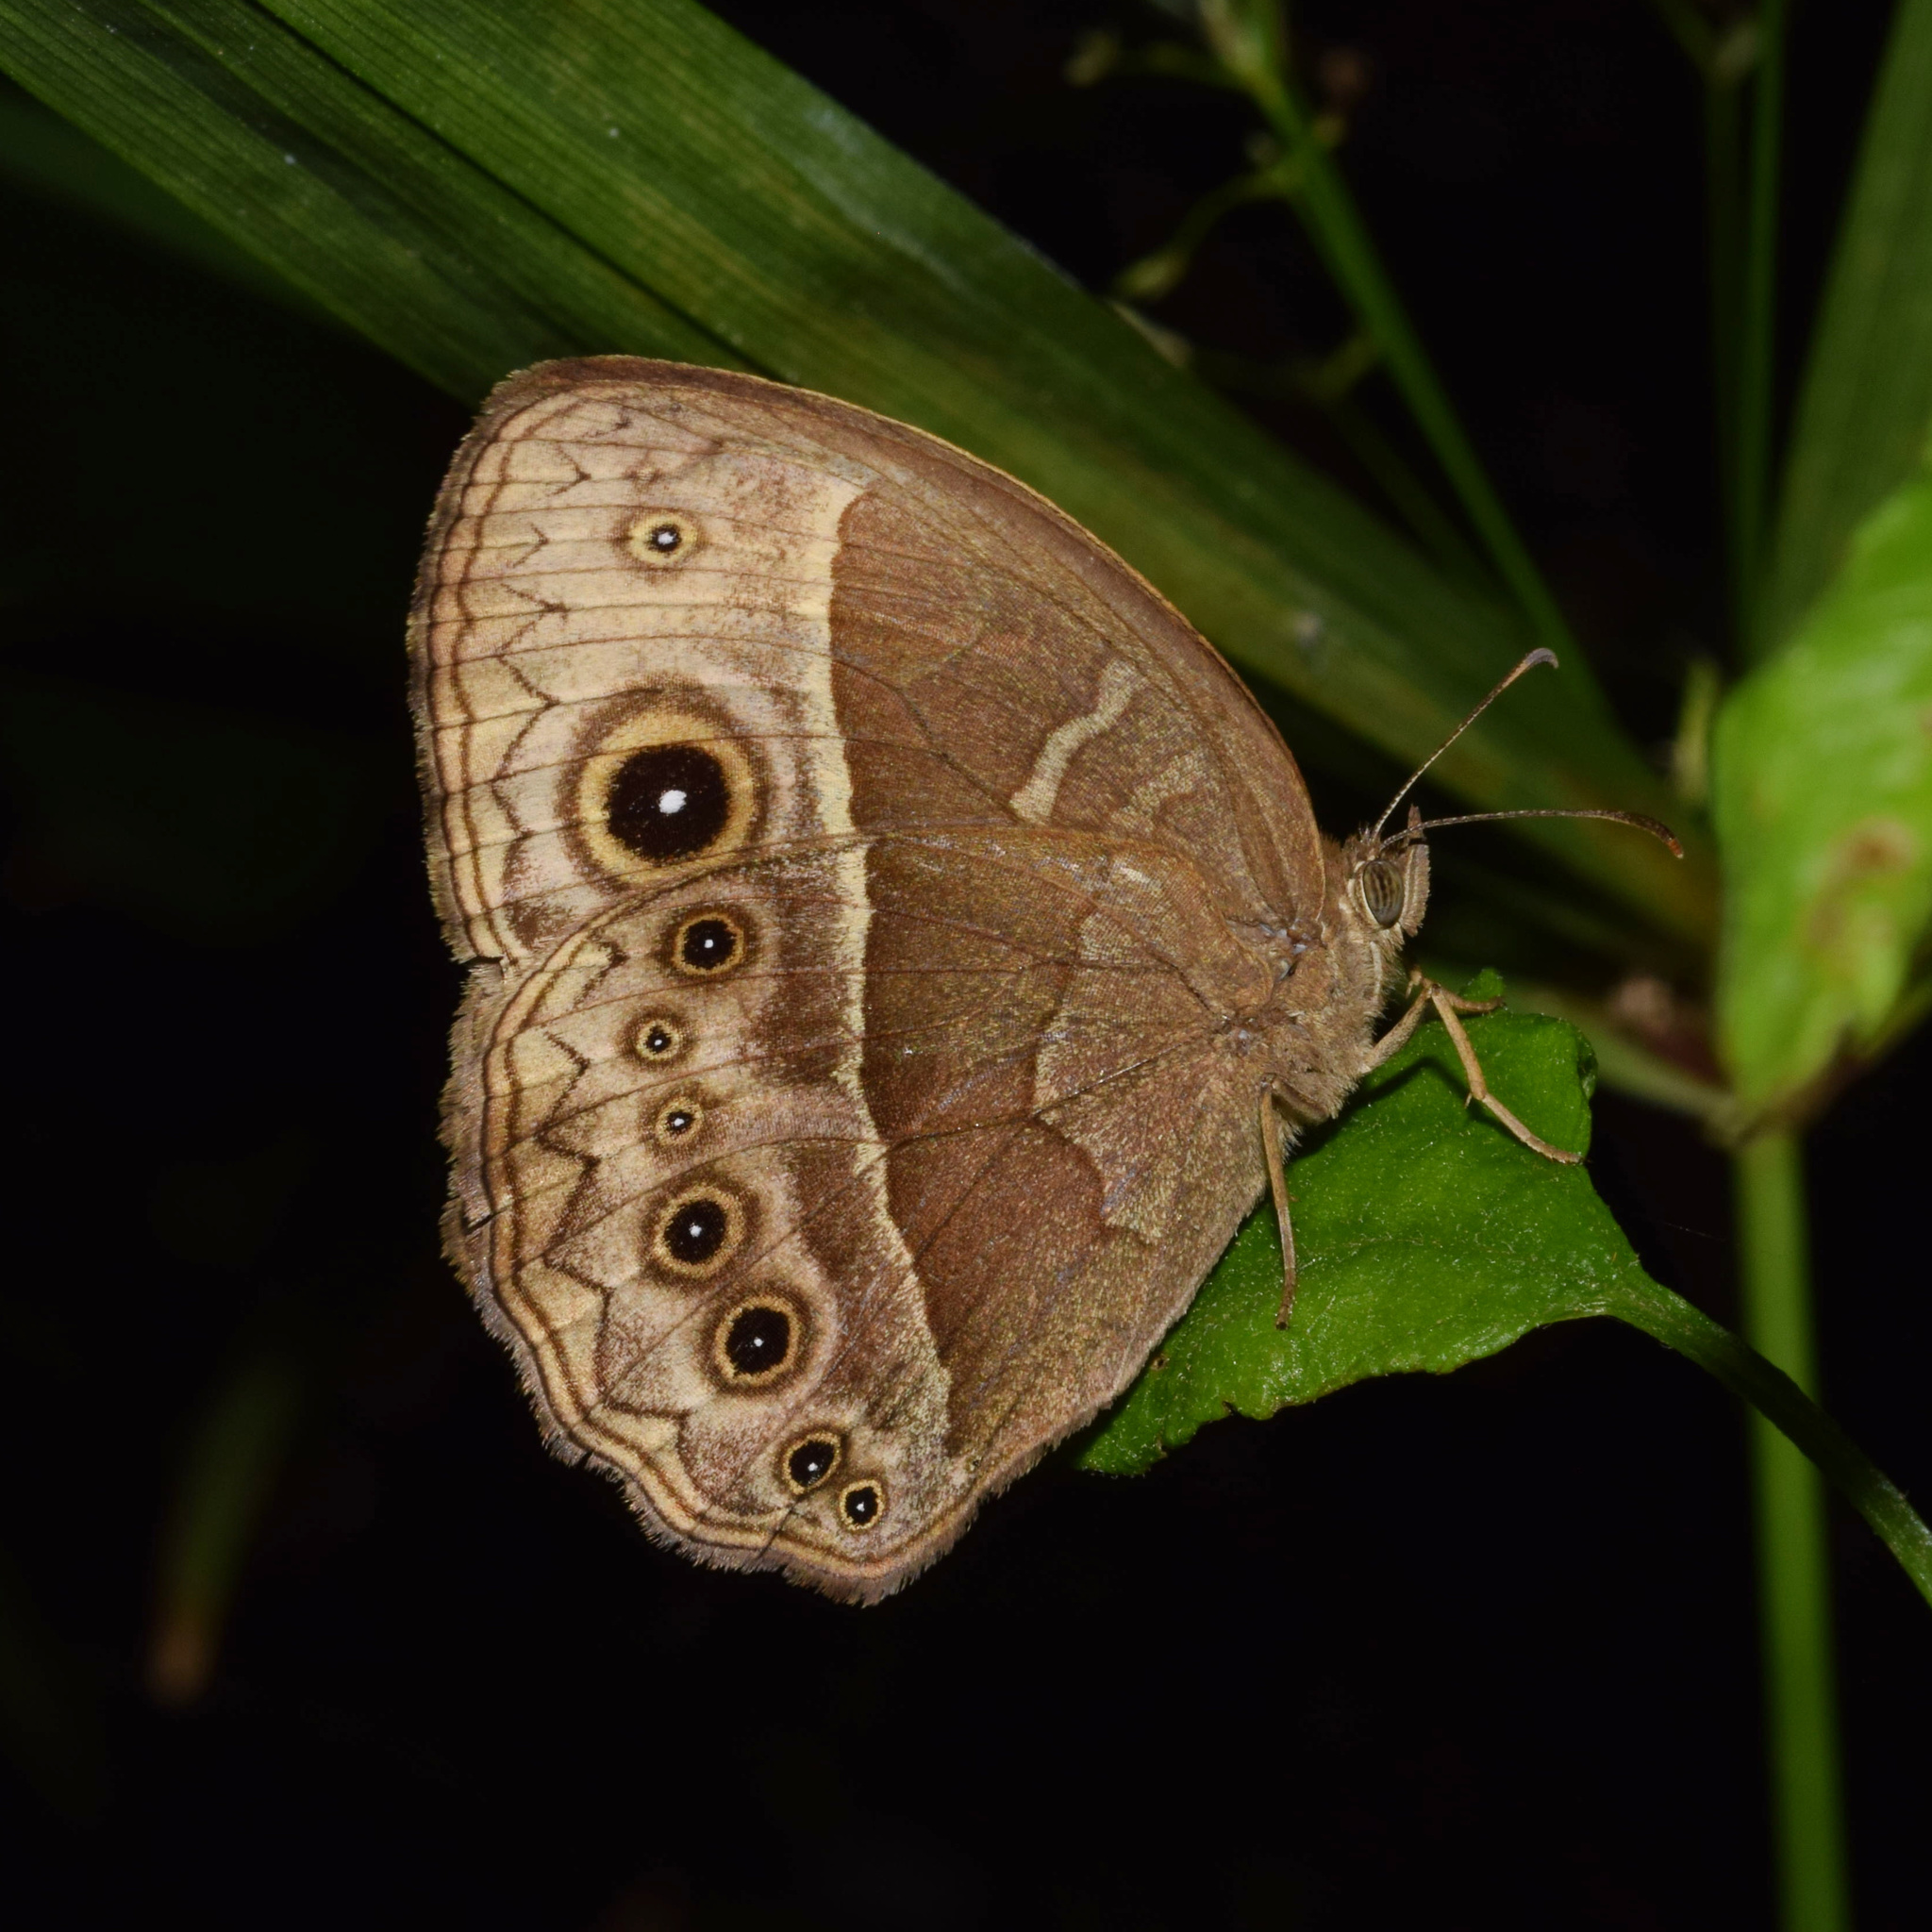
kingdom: Animalia
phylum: Arthropoda
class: Insecta
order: Lepidoptera
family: Nymphalidae
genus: Mycalesis
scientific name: Mycalesis rhacotis
